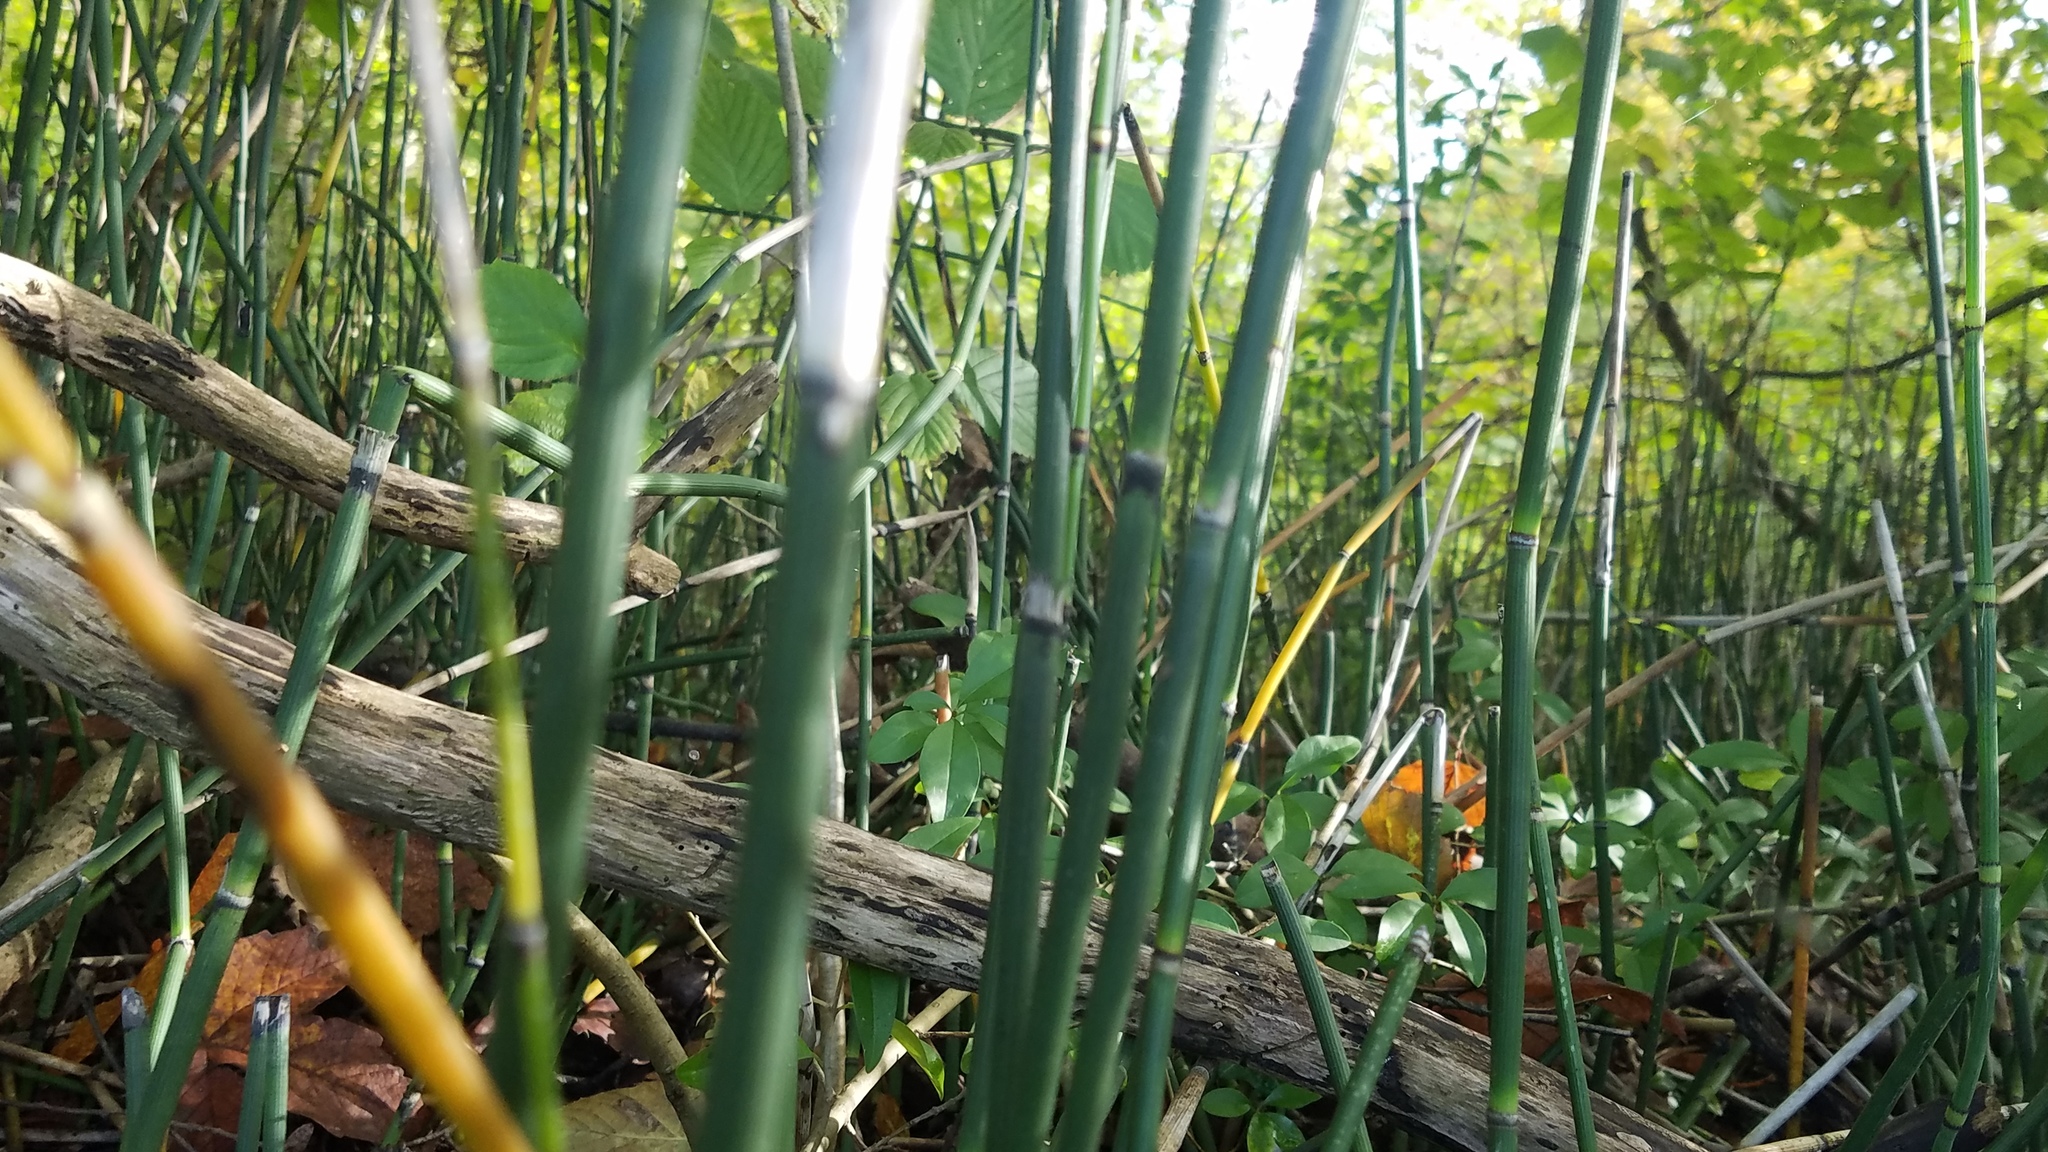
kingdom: Plantae
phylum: Tracheophyta
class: Polypodiopsida
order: Equisetales
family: Equisetaceae
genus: Equisetum
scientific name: Equisetum hyemale
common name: Rough horsetail
